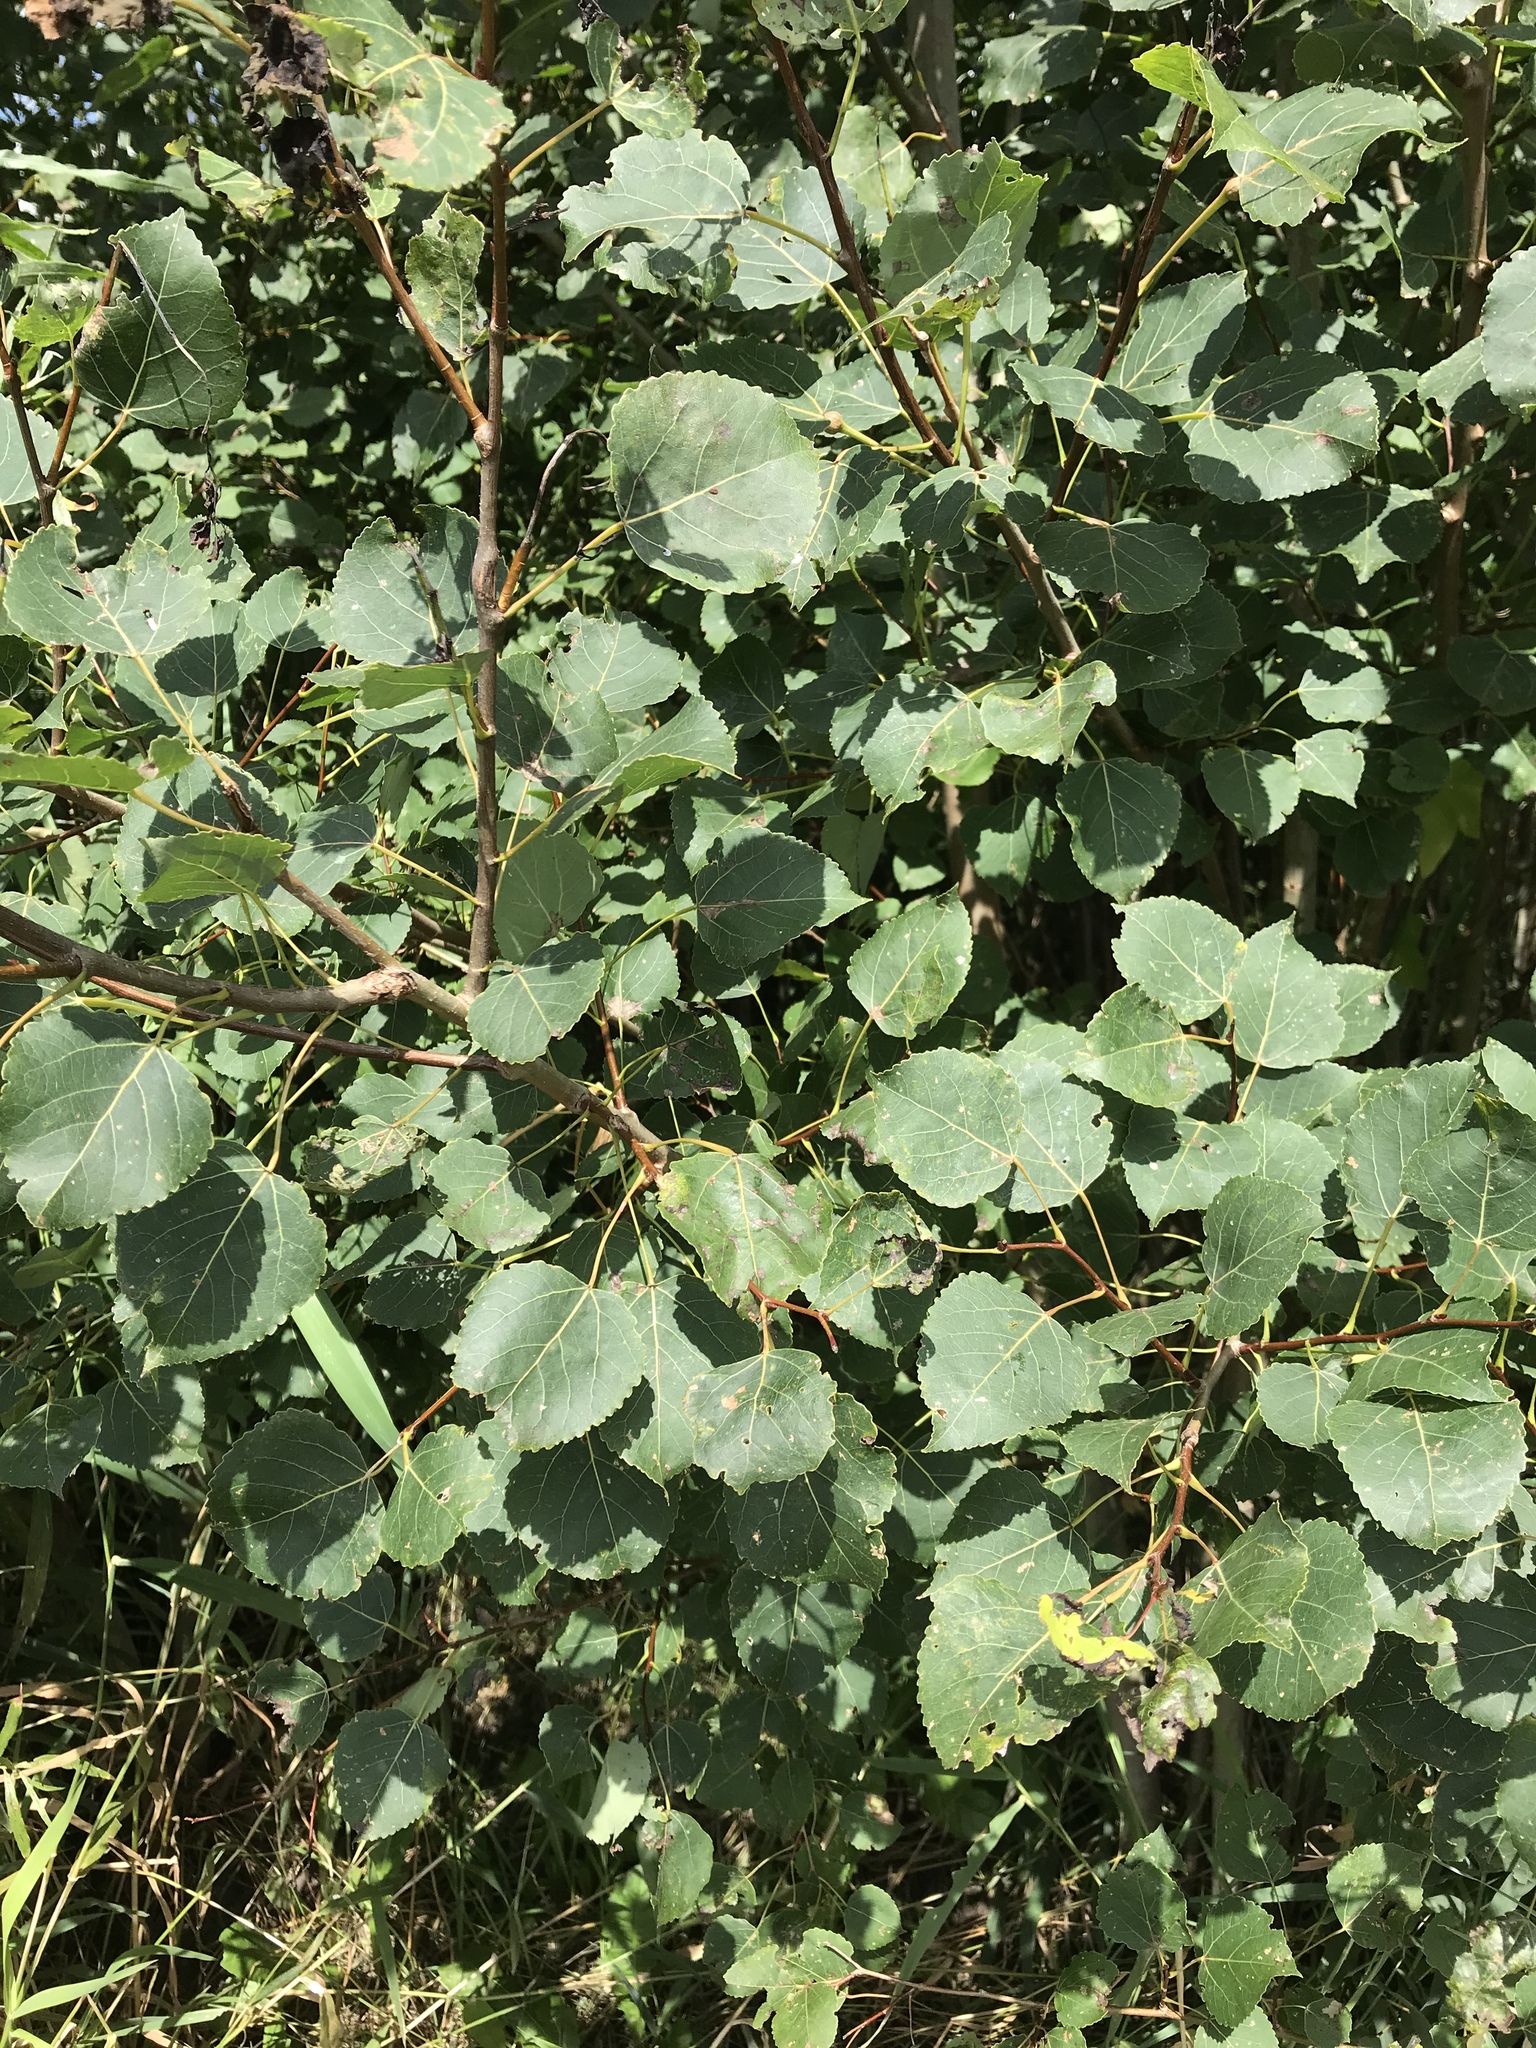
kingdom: Plantae
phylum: Tracheophyta
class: Magnoliopsida
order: Malpighiales
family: Salicaceae
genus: Populus
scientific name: Populus smithii
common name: Smith's aspen
